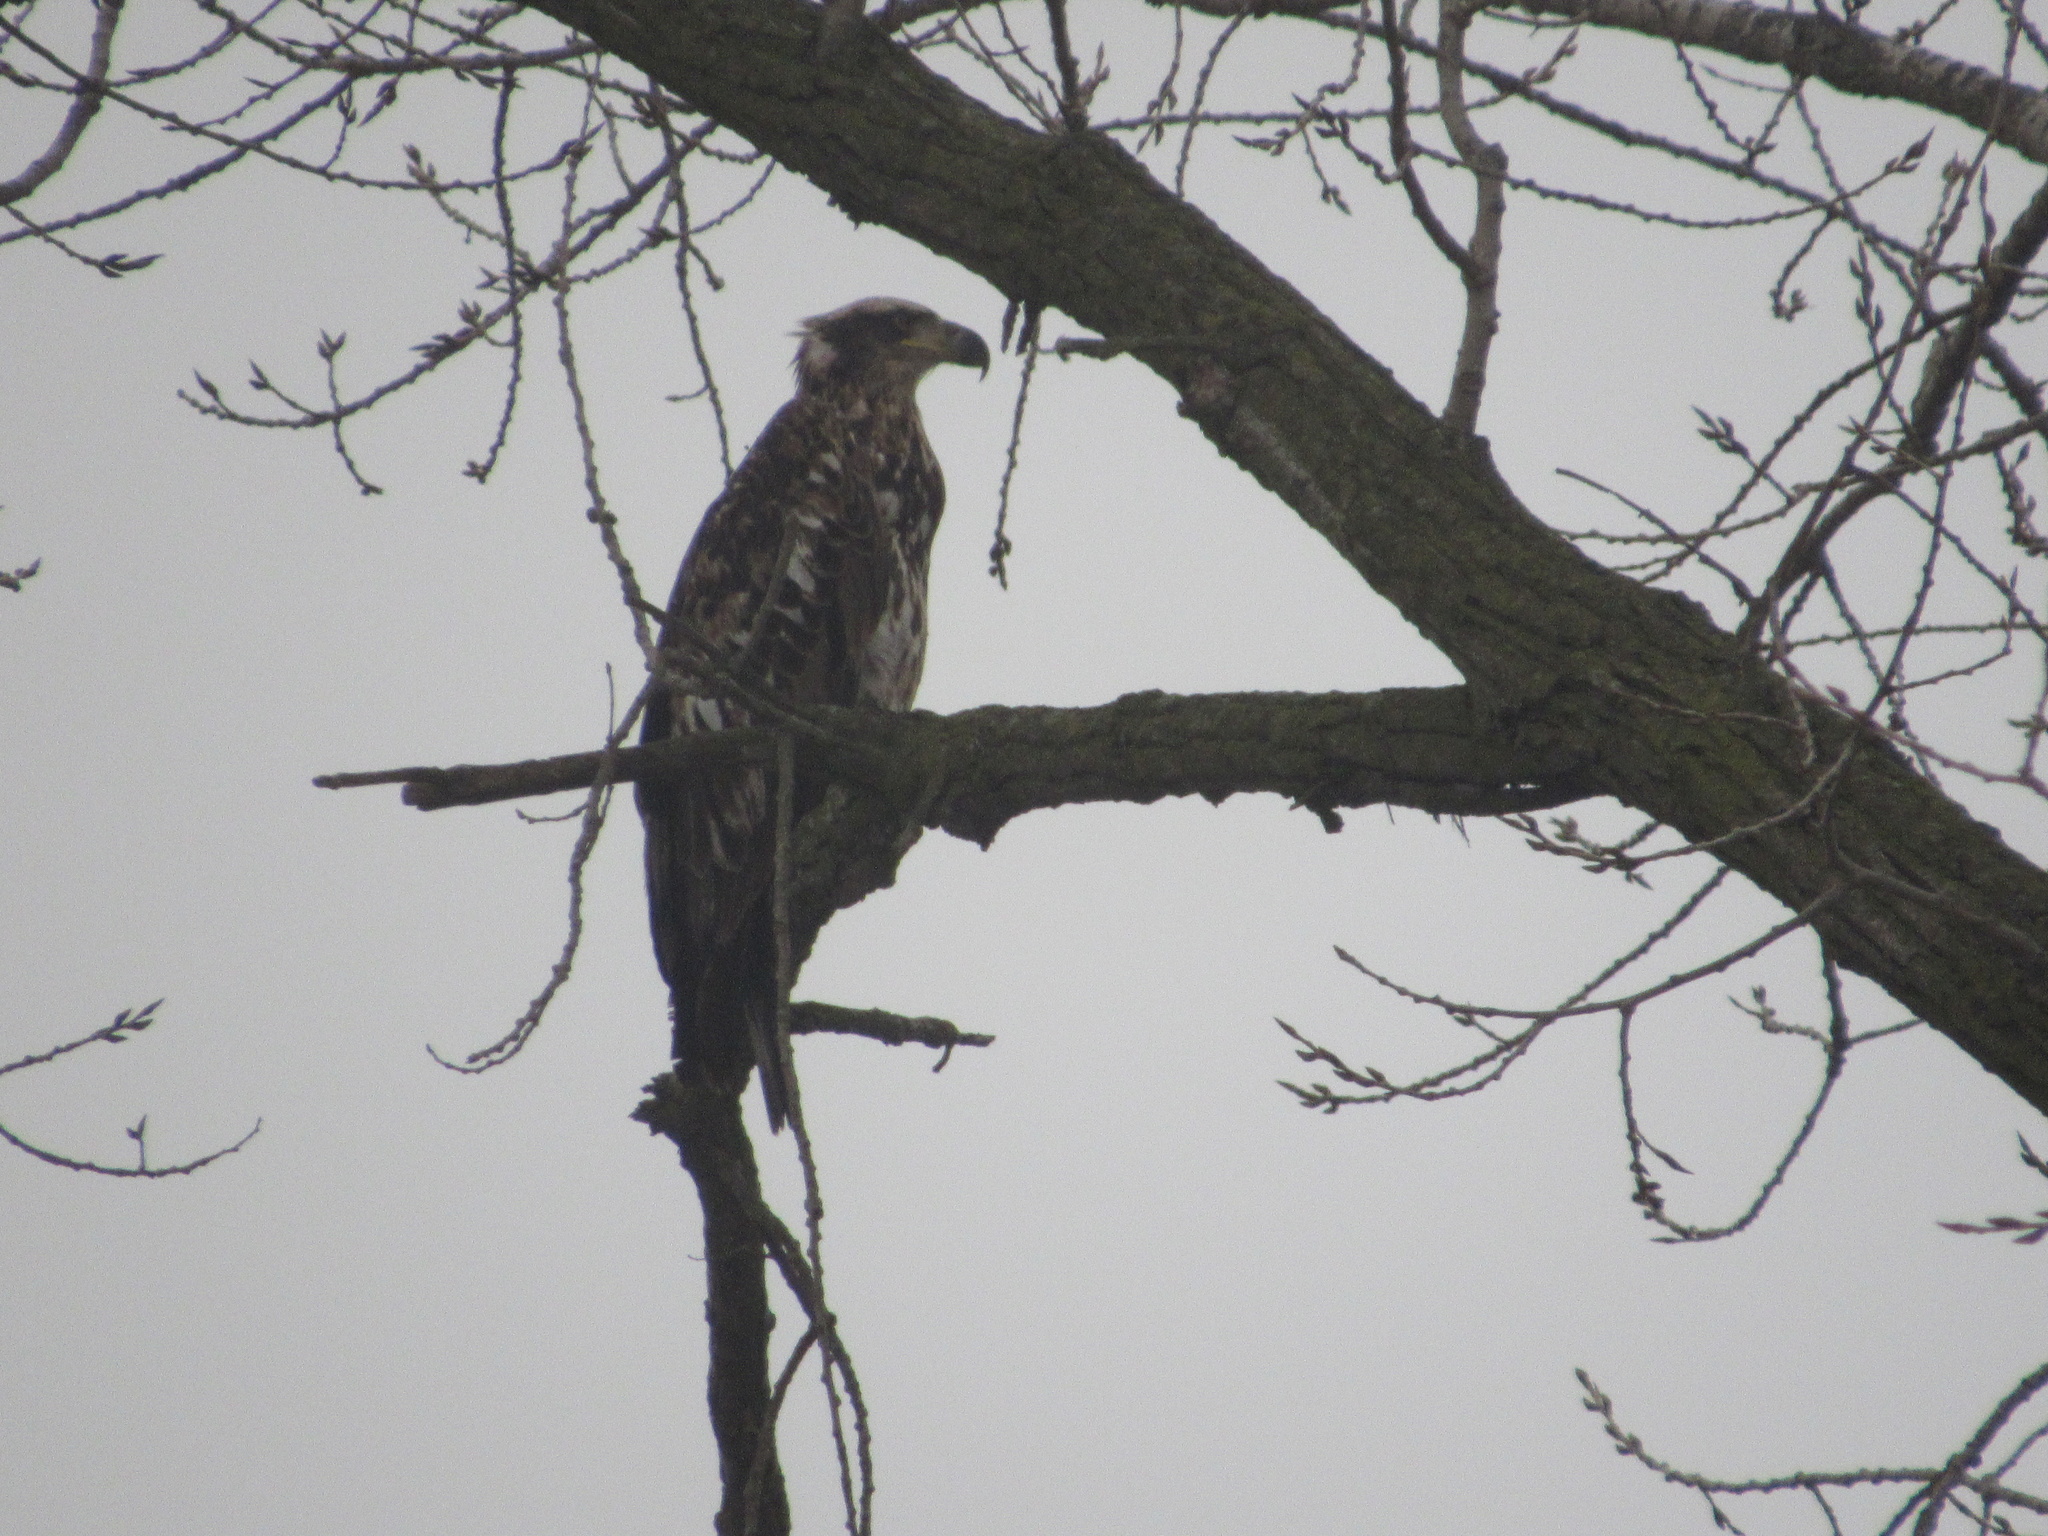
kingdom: Animalia
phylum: Chordata
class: Aves
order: Accipitriformes
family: Accipitridae
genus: Haliaeetus
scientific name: Haliaeetus leucocephalus
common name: Bald eagle
